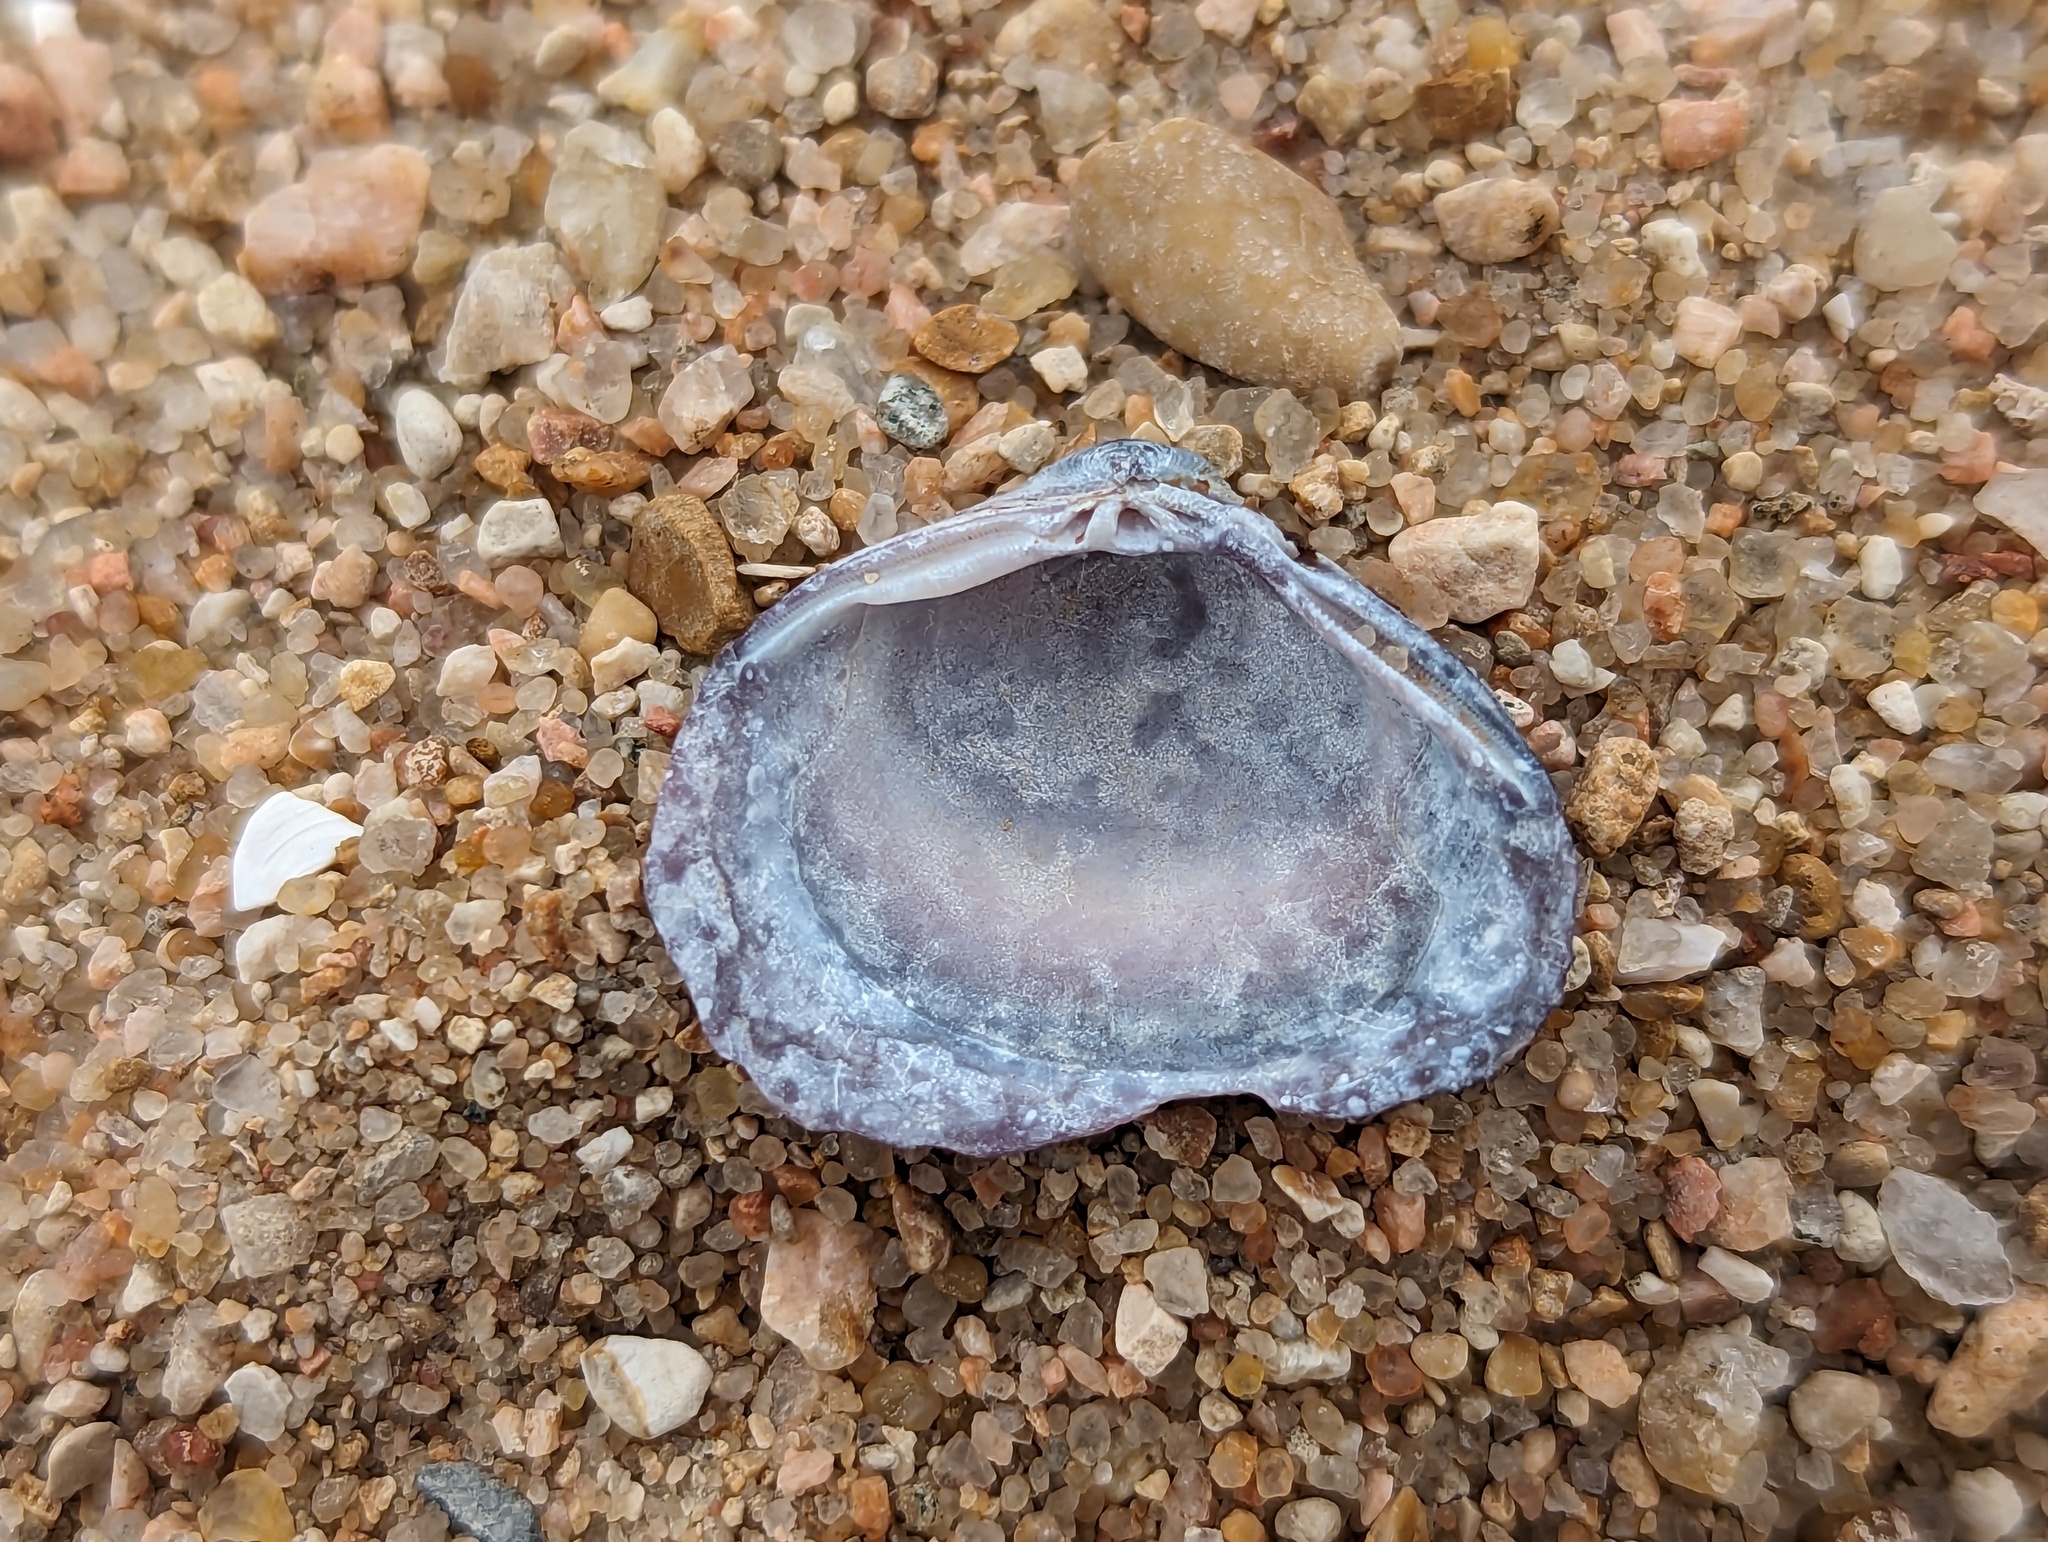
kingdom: Animalia
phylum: Mollusca
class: Bivalvia
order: Venerida
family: Cyrenidae
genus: Corbicula
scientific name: Corbicula fluminea
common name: Asian clam
